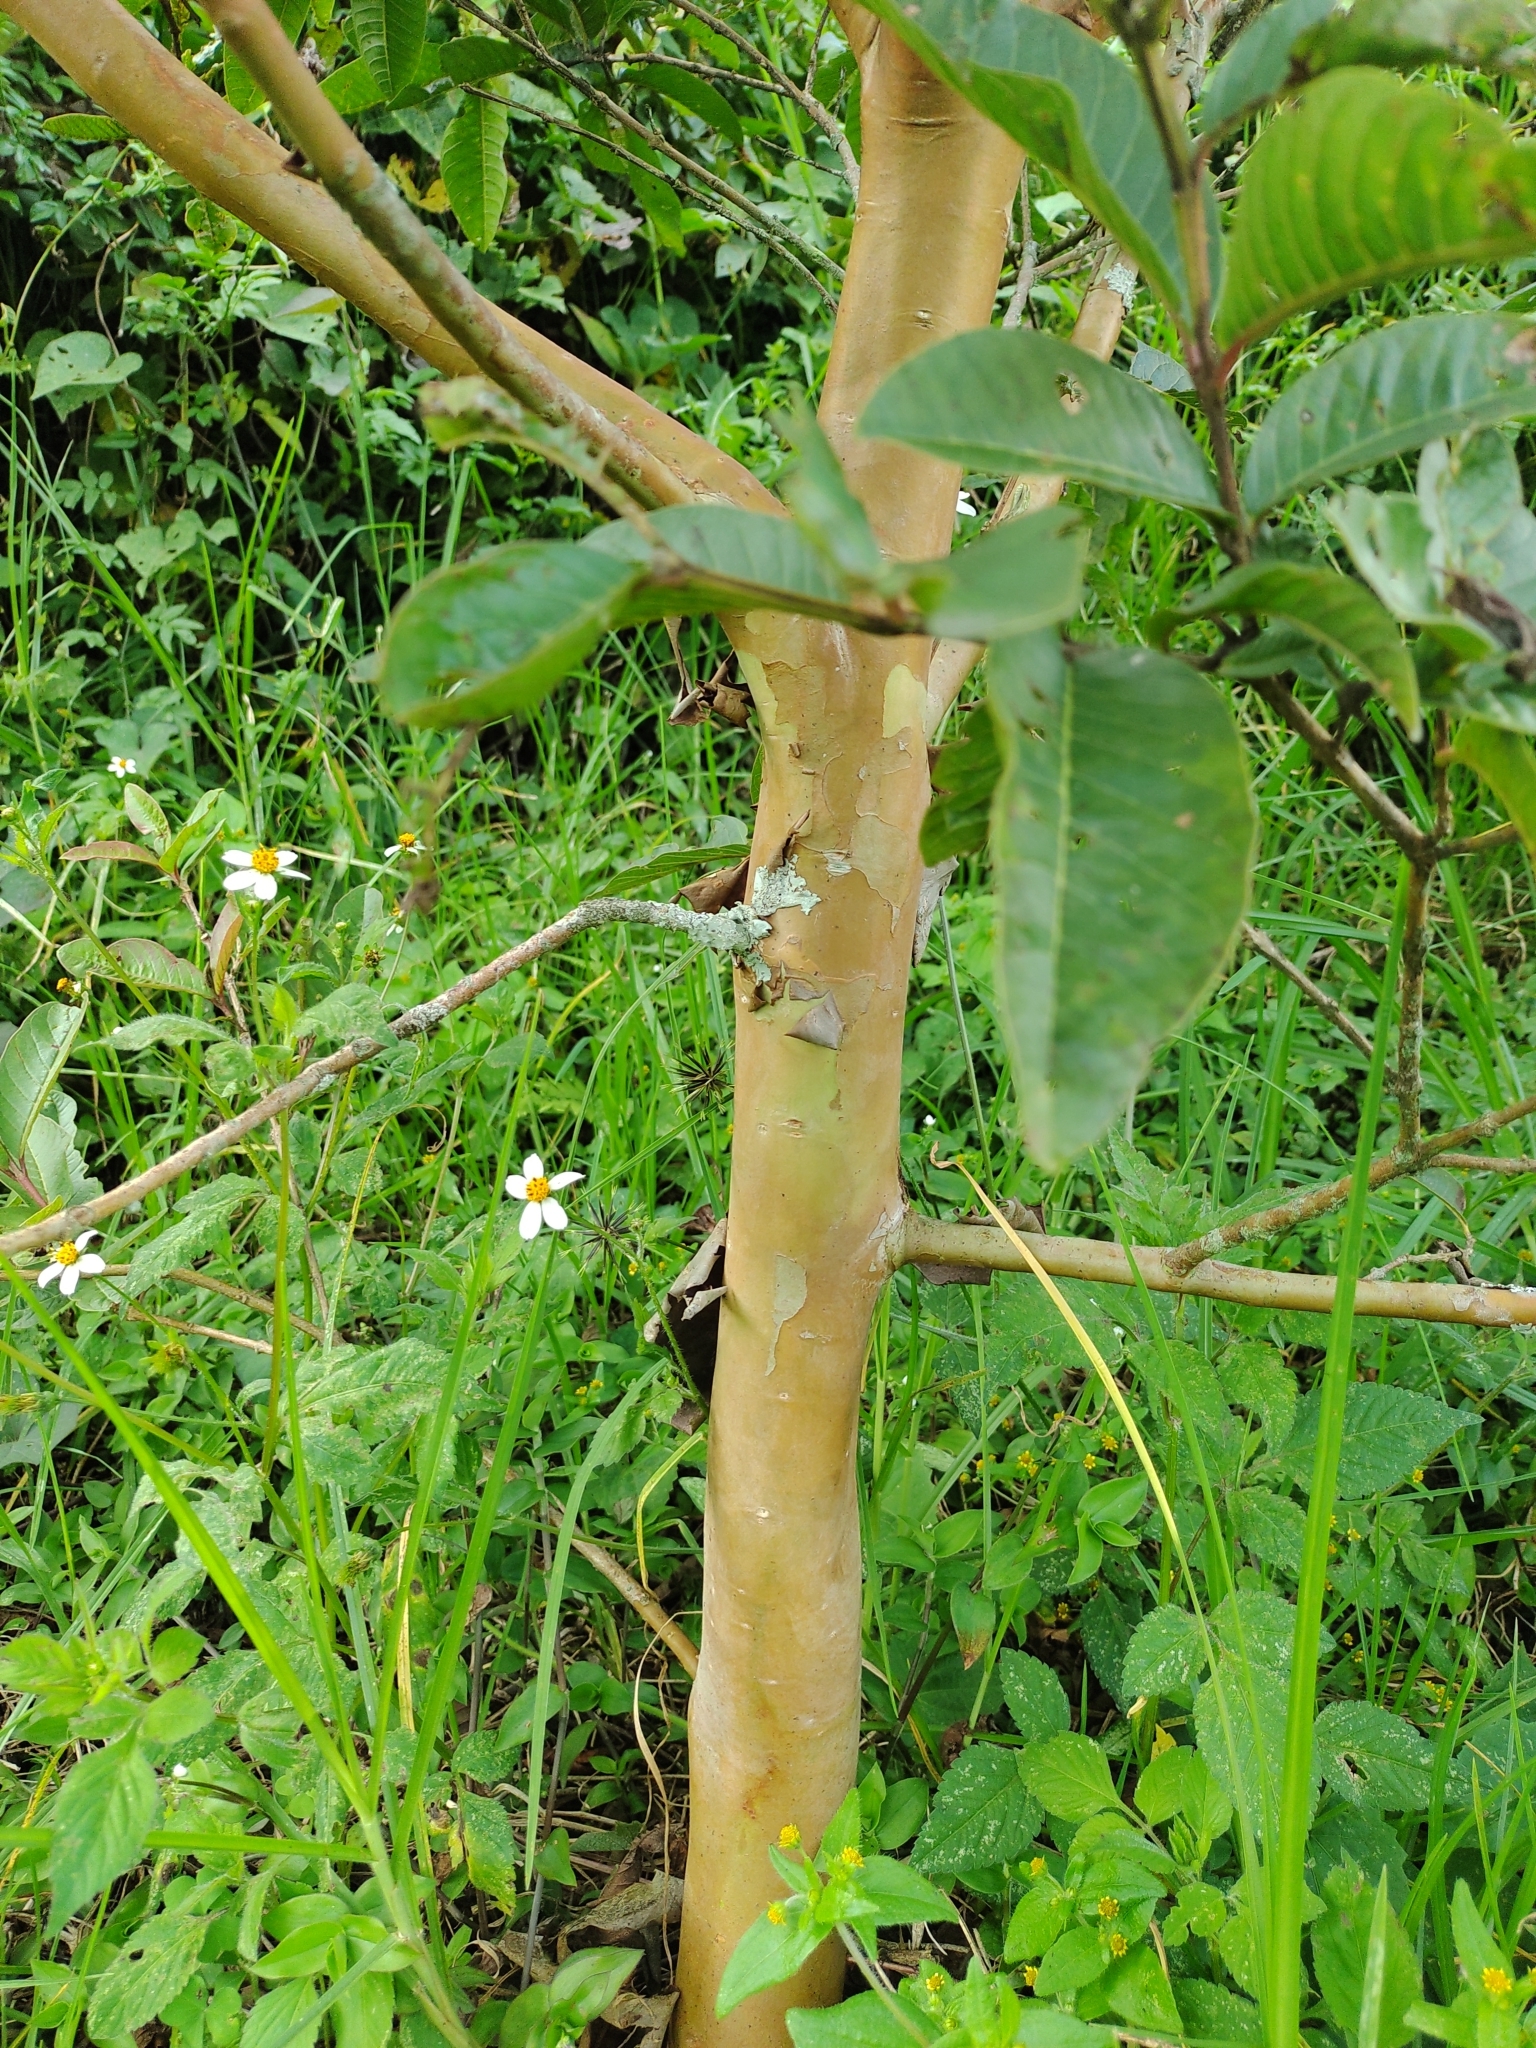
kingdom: Plantae
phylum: Tracheophyta
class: Magnoliopsida
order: Myrtales
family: Myrtaceae
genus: Psidium
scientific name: Psidium guajava
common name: Guava
